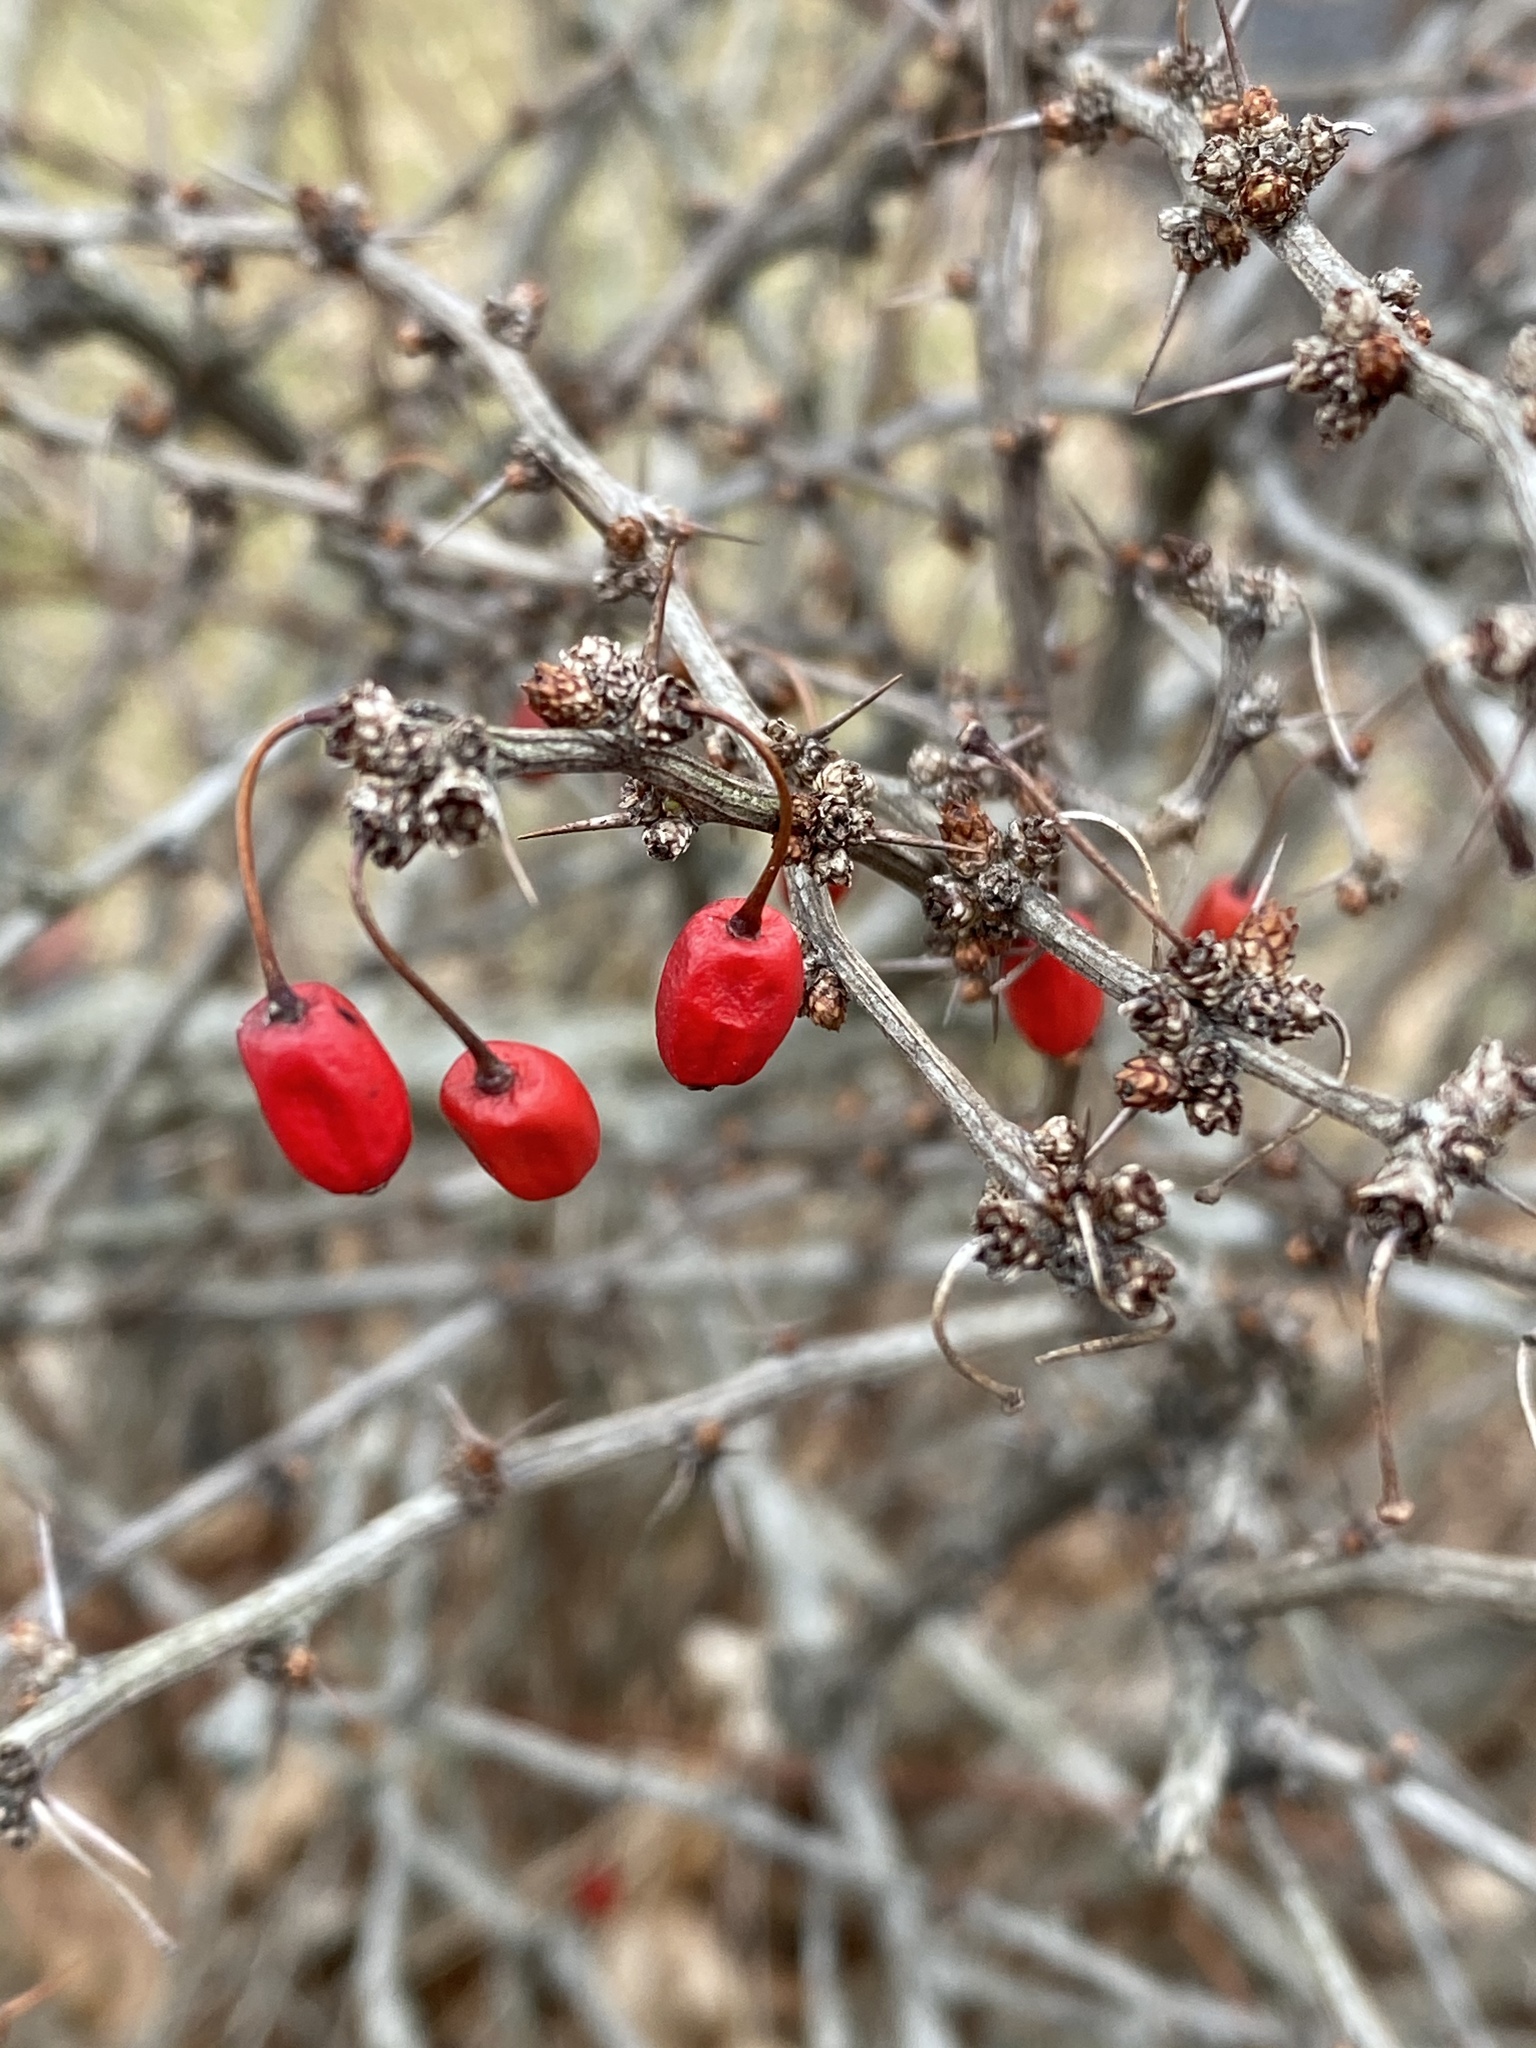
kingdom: Plantae
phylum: Tracheophyta
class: Magnoliopsida
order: Ranunculales
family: Berberidaceae
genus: Berberis
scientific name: Berberis thunbergii
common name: Japanese barberry
